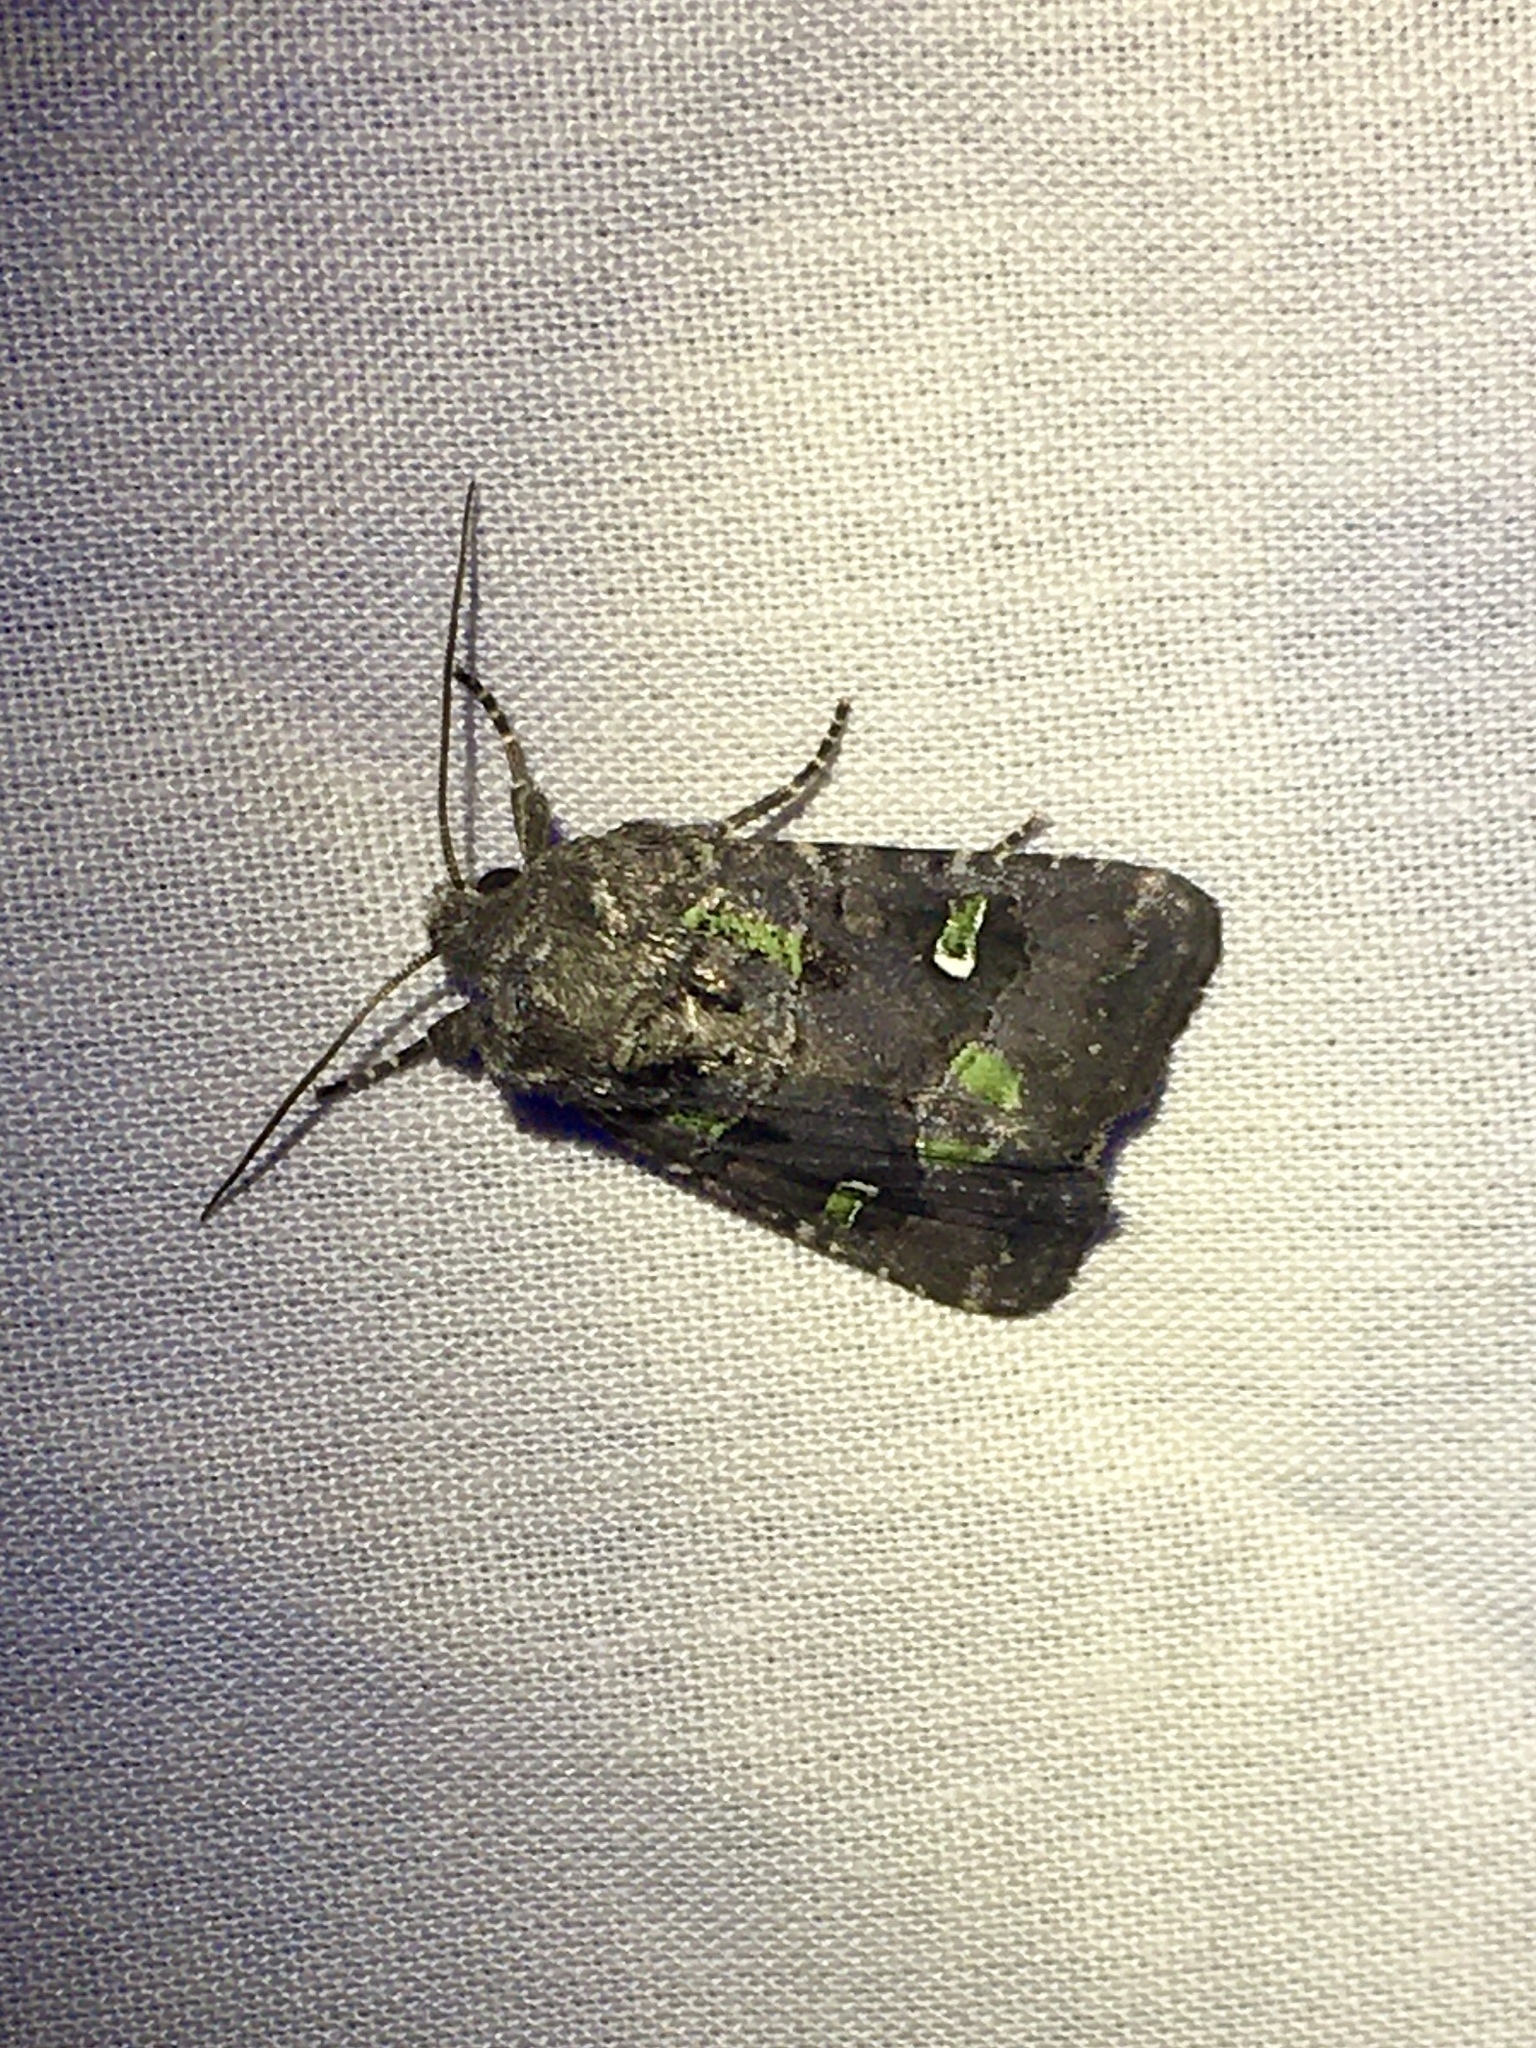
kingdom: Animalia
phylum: Arthropoda
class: Insecta
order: Lepidoptera
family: Noctuidae
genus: Lacinipolia
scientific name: Lacinipolia renigera
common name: Kidney-spotted minor
